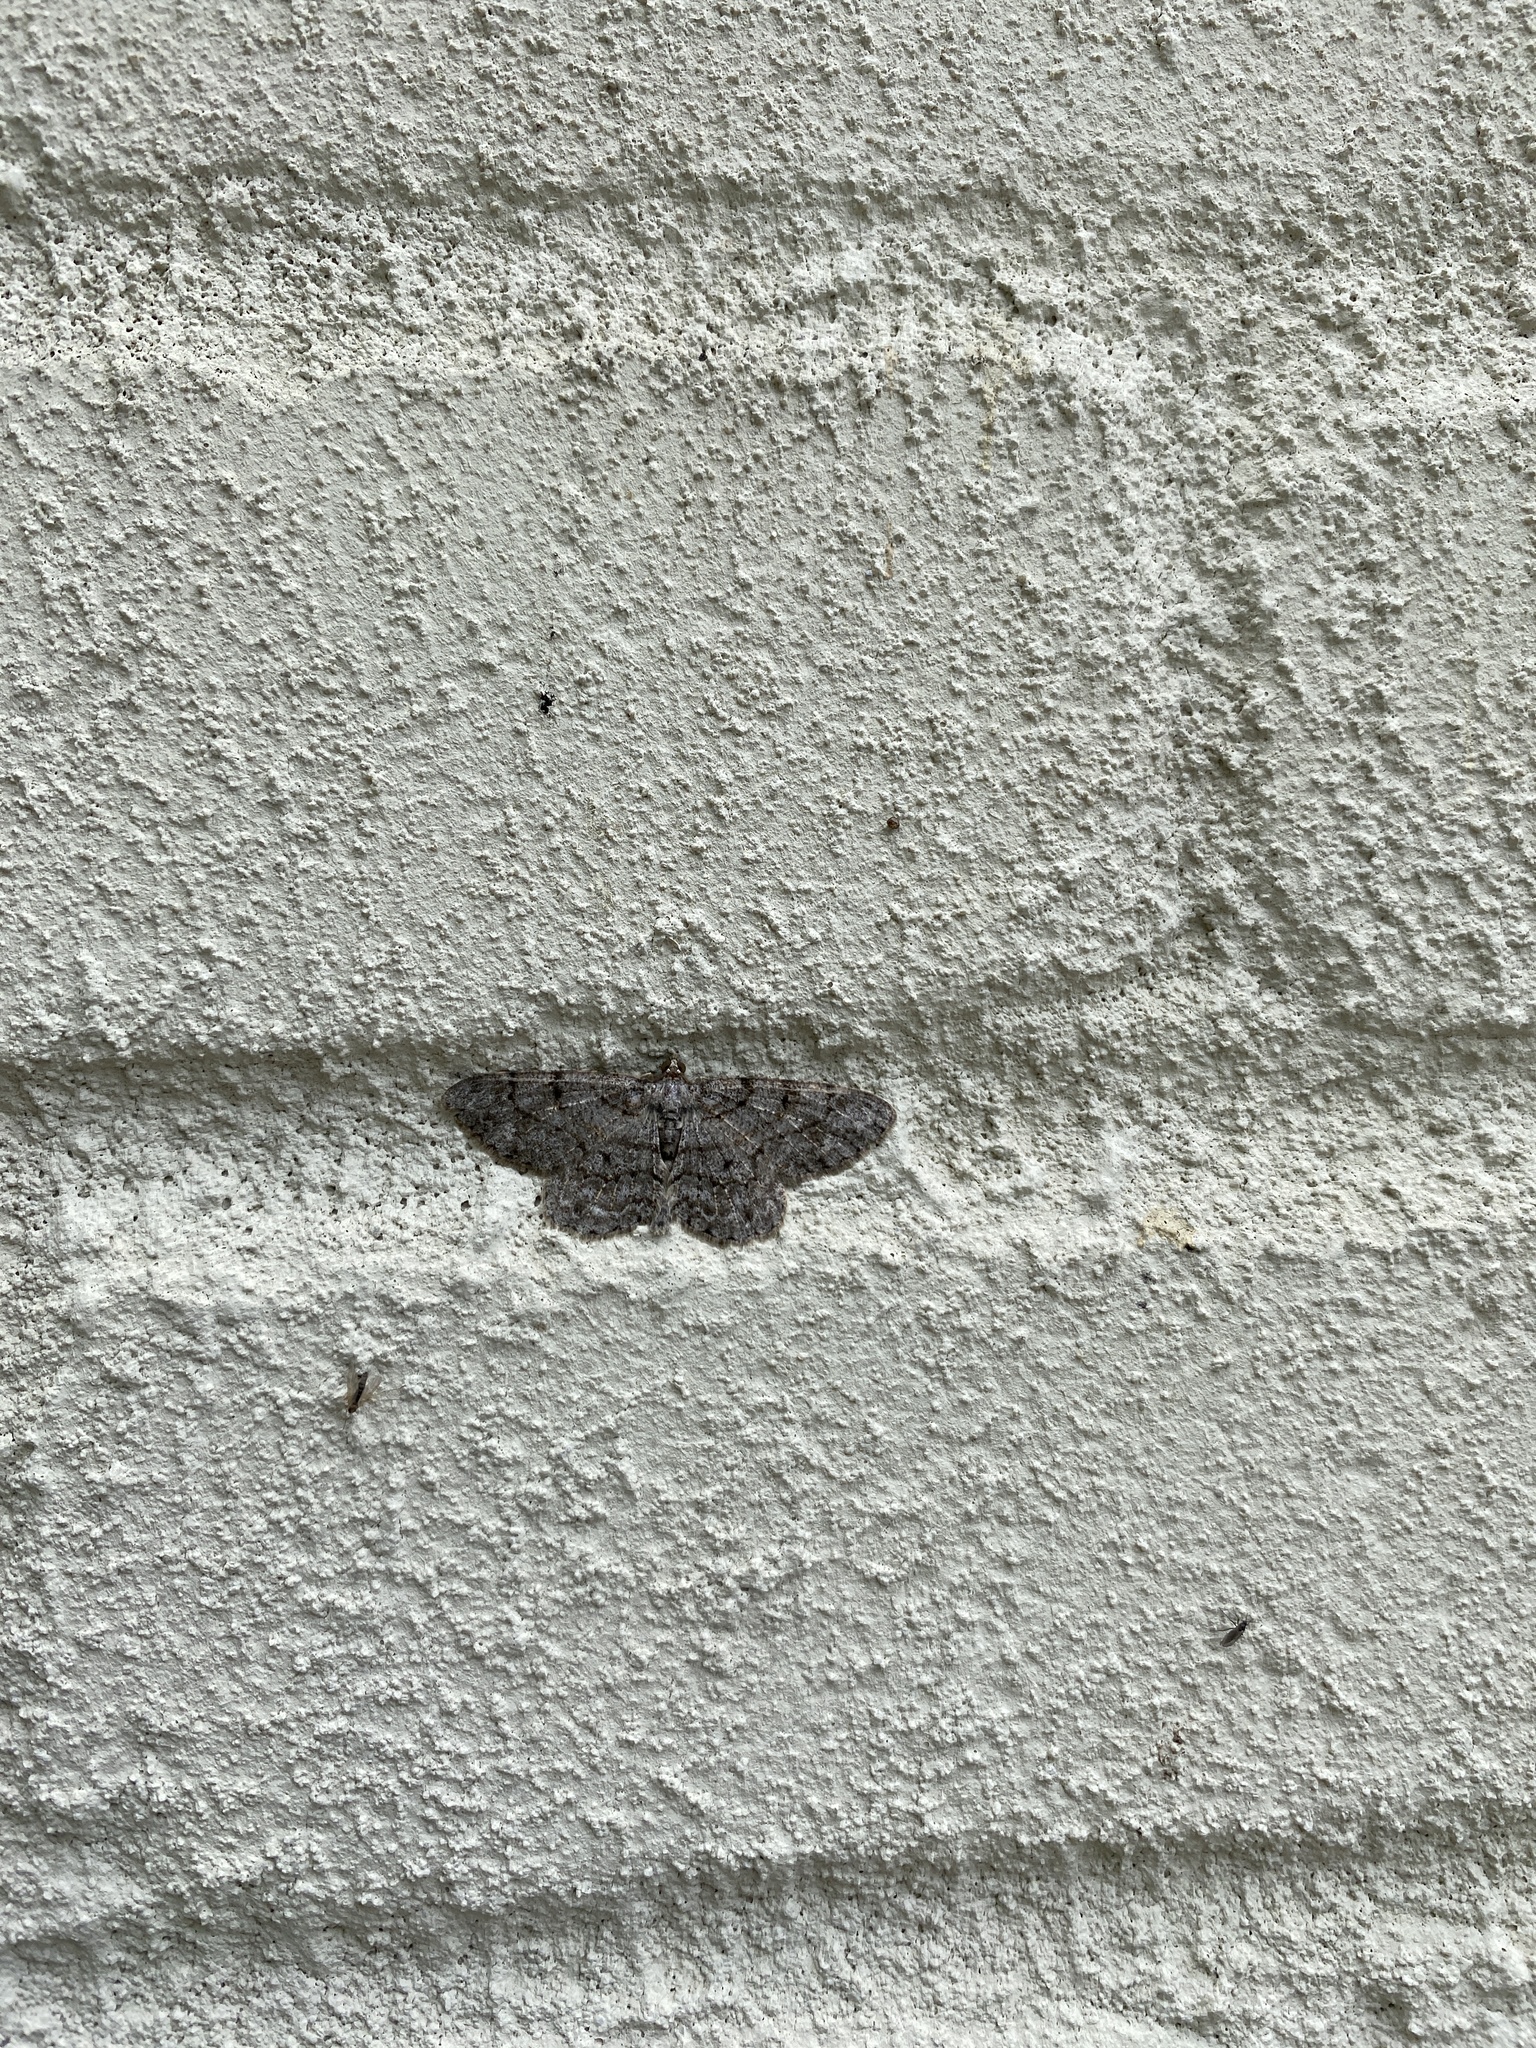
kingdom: Animalia
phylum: Arthropoda
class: Insecta
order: Lepidoptera
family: Geometridae
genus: Protoboarmia
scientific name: Protoboarmia porcelaria
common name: Porcelain gray
